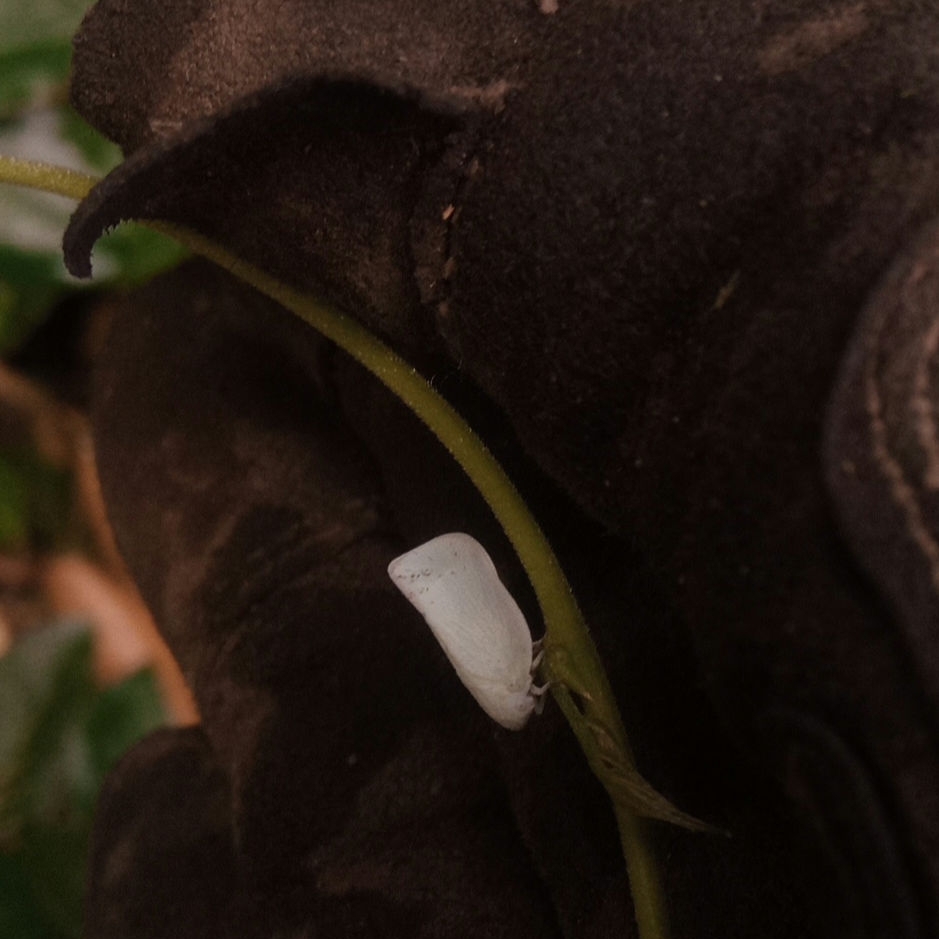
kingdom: Animalia
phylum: Arthropoda
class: Insecta
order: Hemiptera
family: Flatidae
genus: Flatormenis
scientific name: Flatormenis proxima
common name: Northern flatid planthopper
